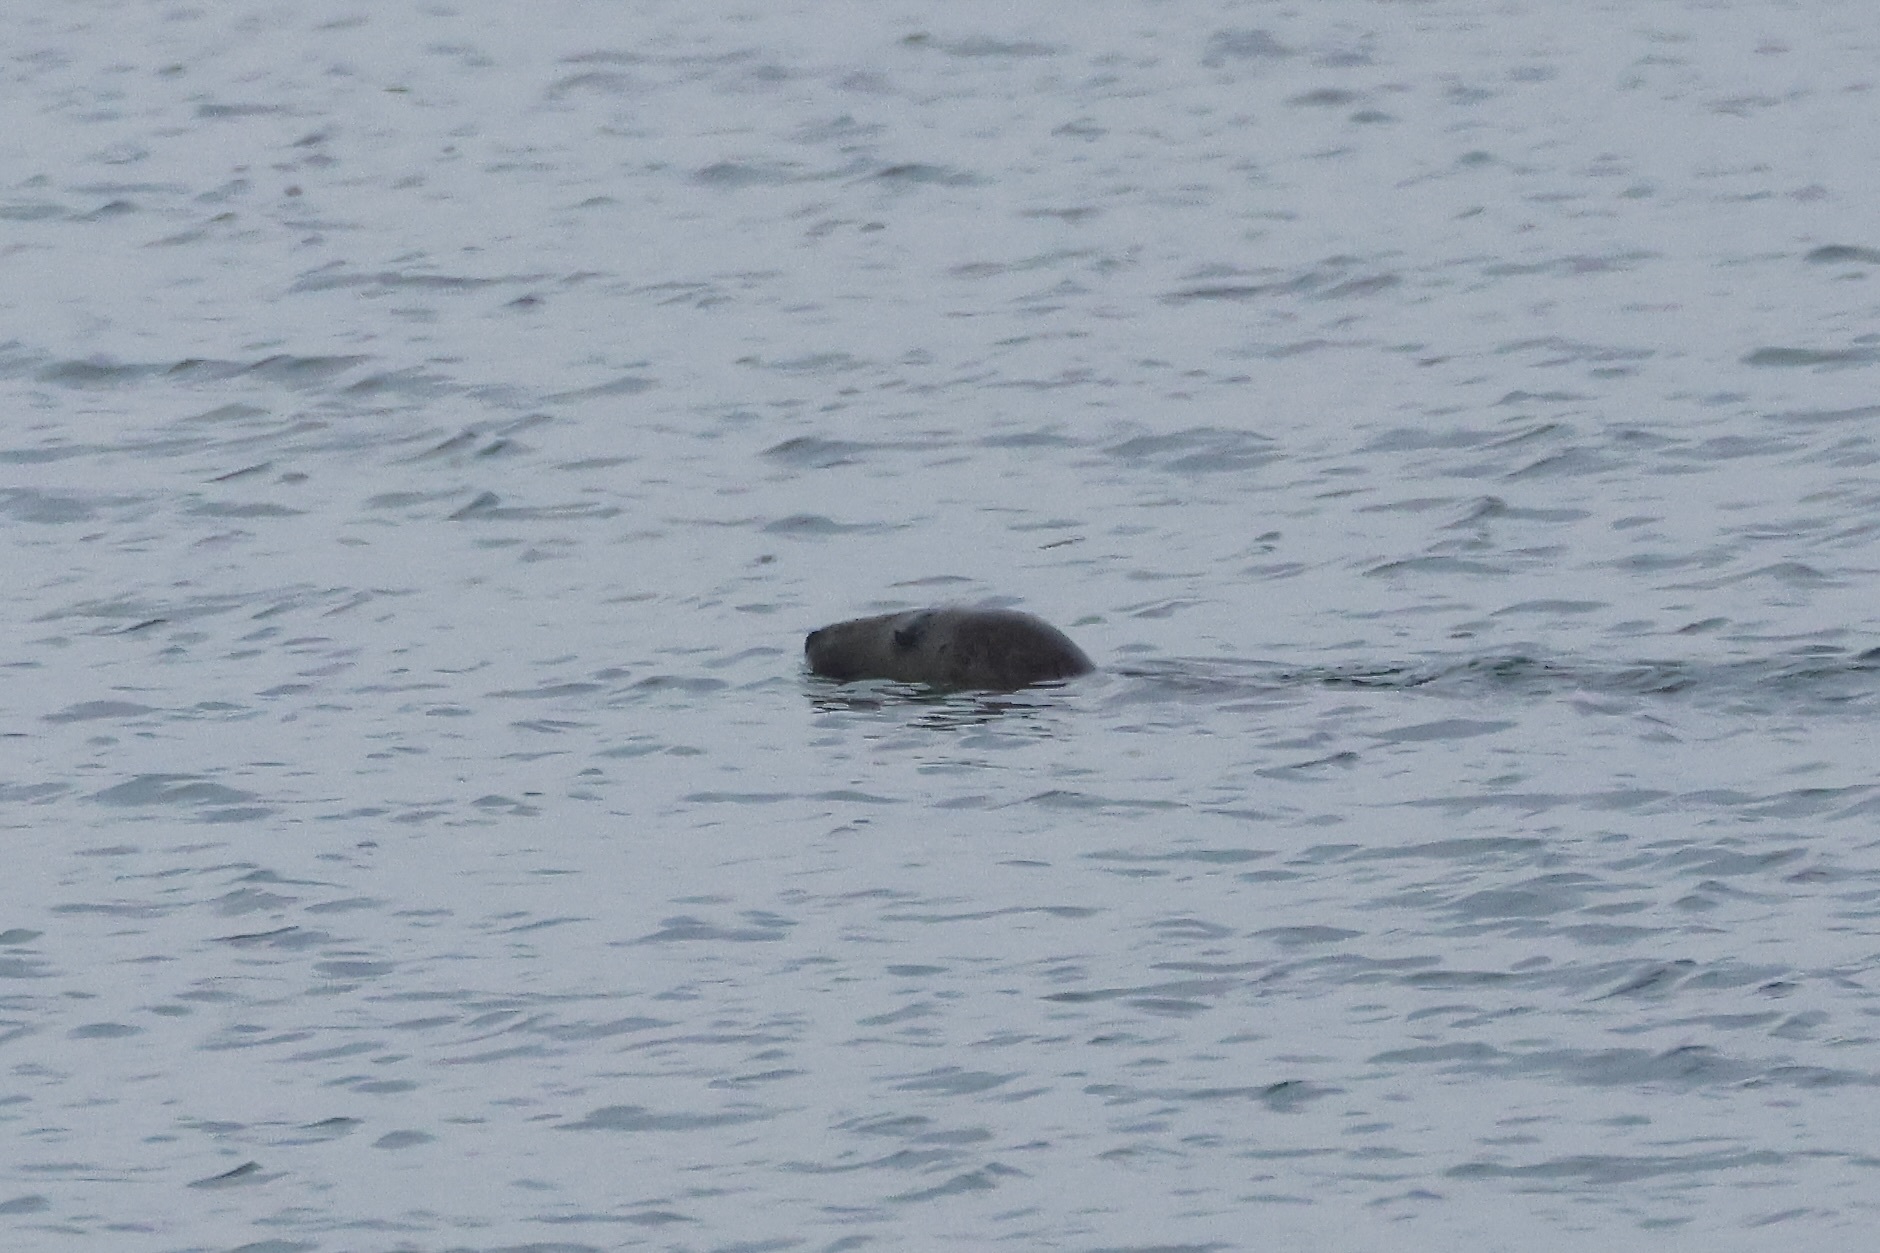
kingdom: Animalia
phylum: Chordata
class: Mammalia
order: Carnivora
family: Phocidae
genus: Halichoerus
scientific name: Halichoerus grypus
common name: Grey seal
